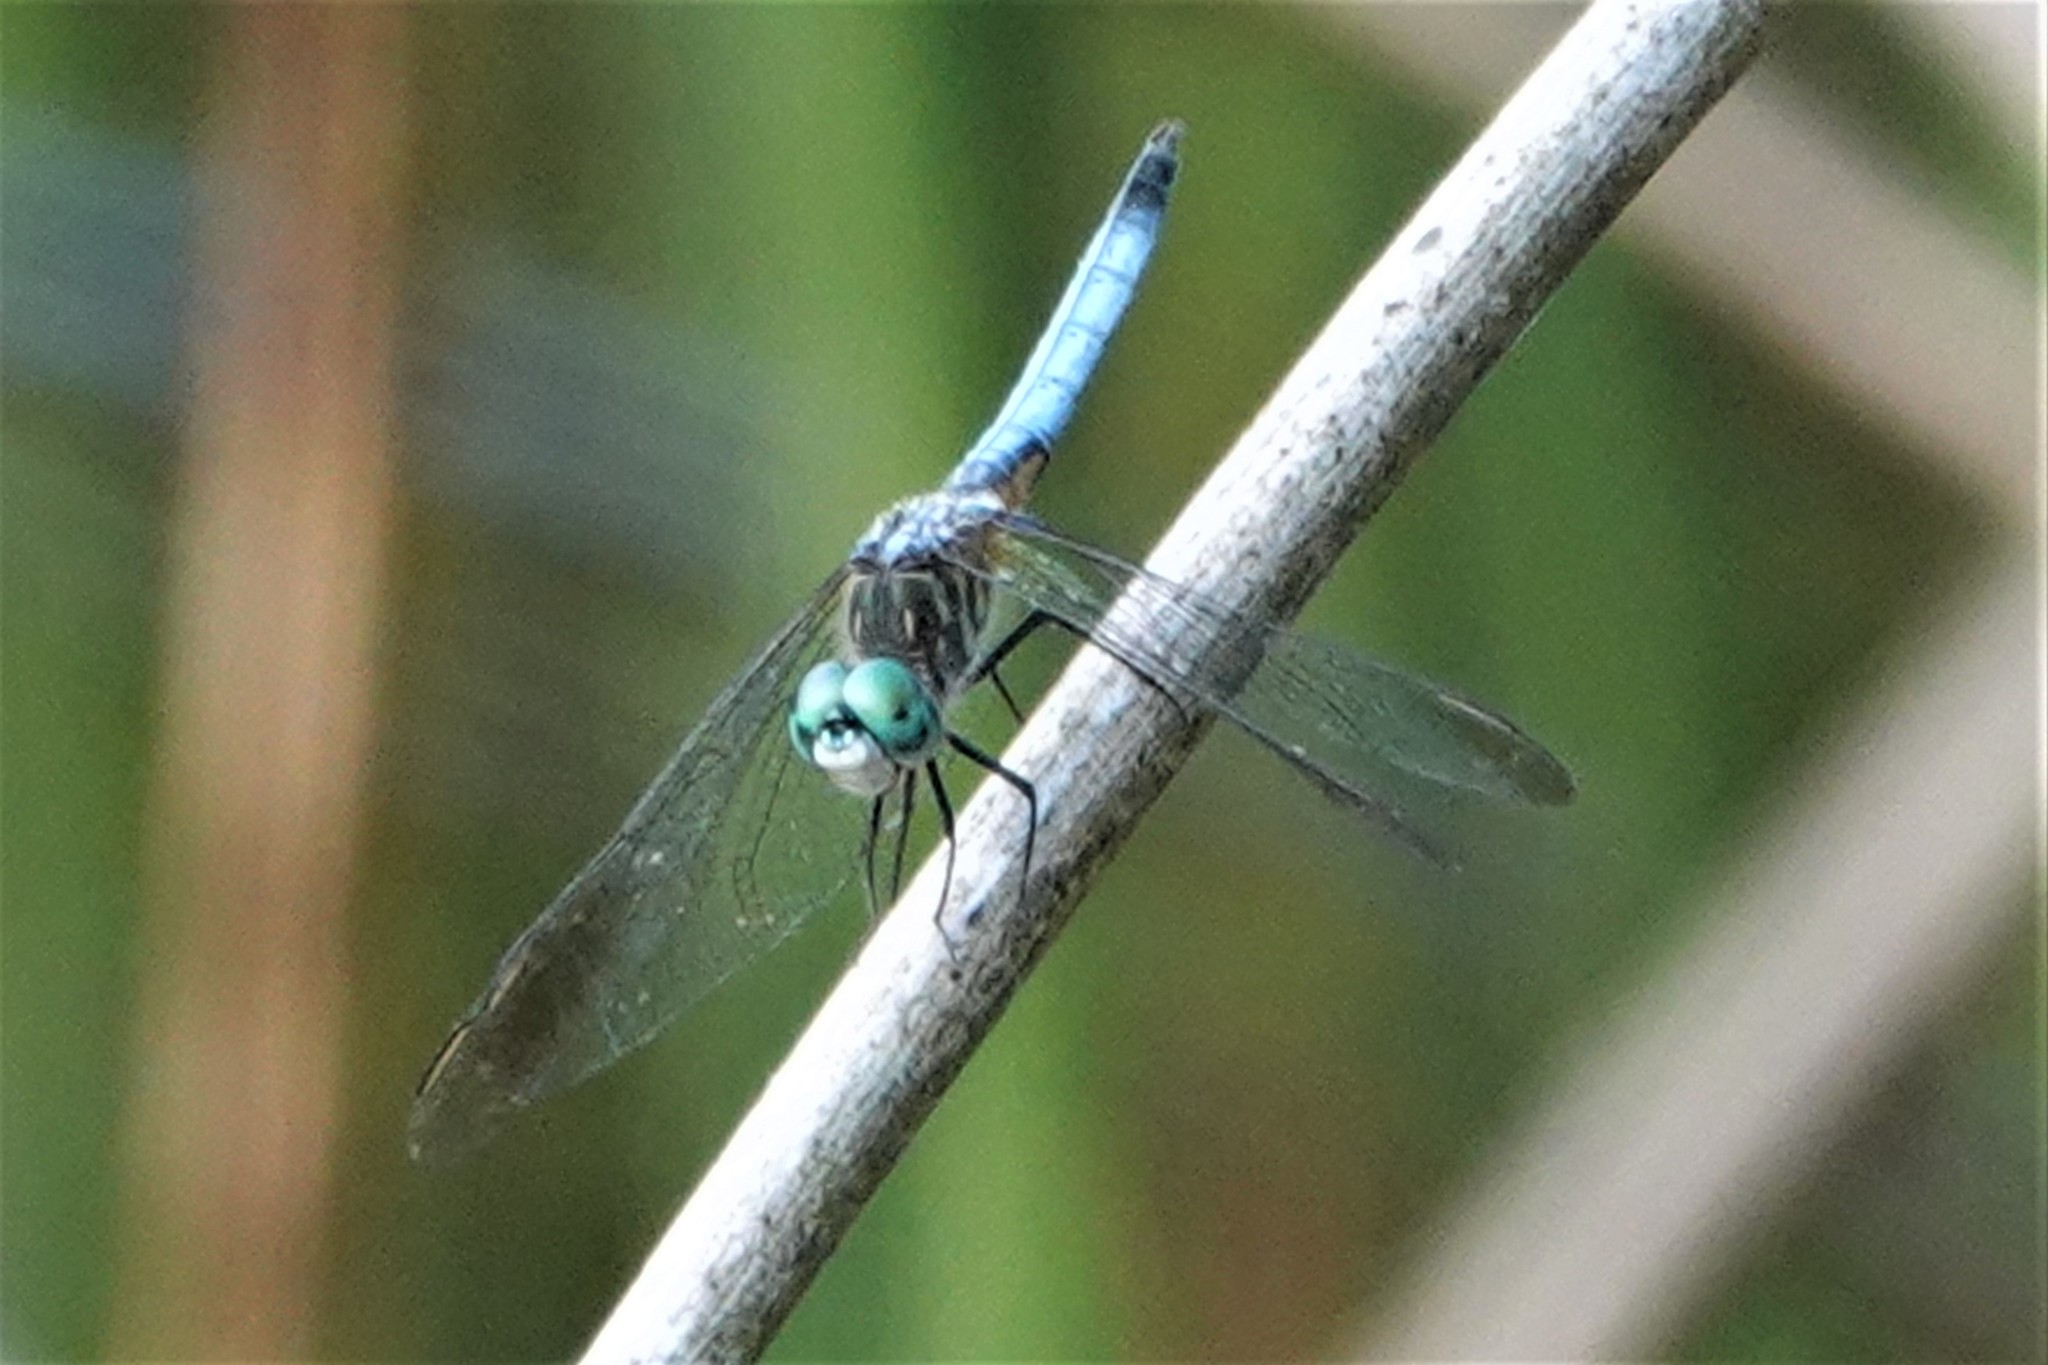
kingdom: Animalia
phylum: Arthropoda
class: Insecta
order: Odonata
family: Libellulidae
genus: Pachydiplax
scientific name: Pachydiplax longipennis
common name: Blue dasher
